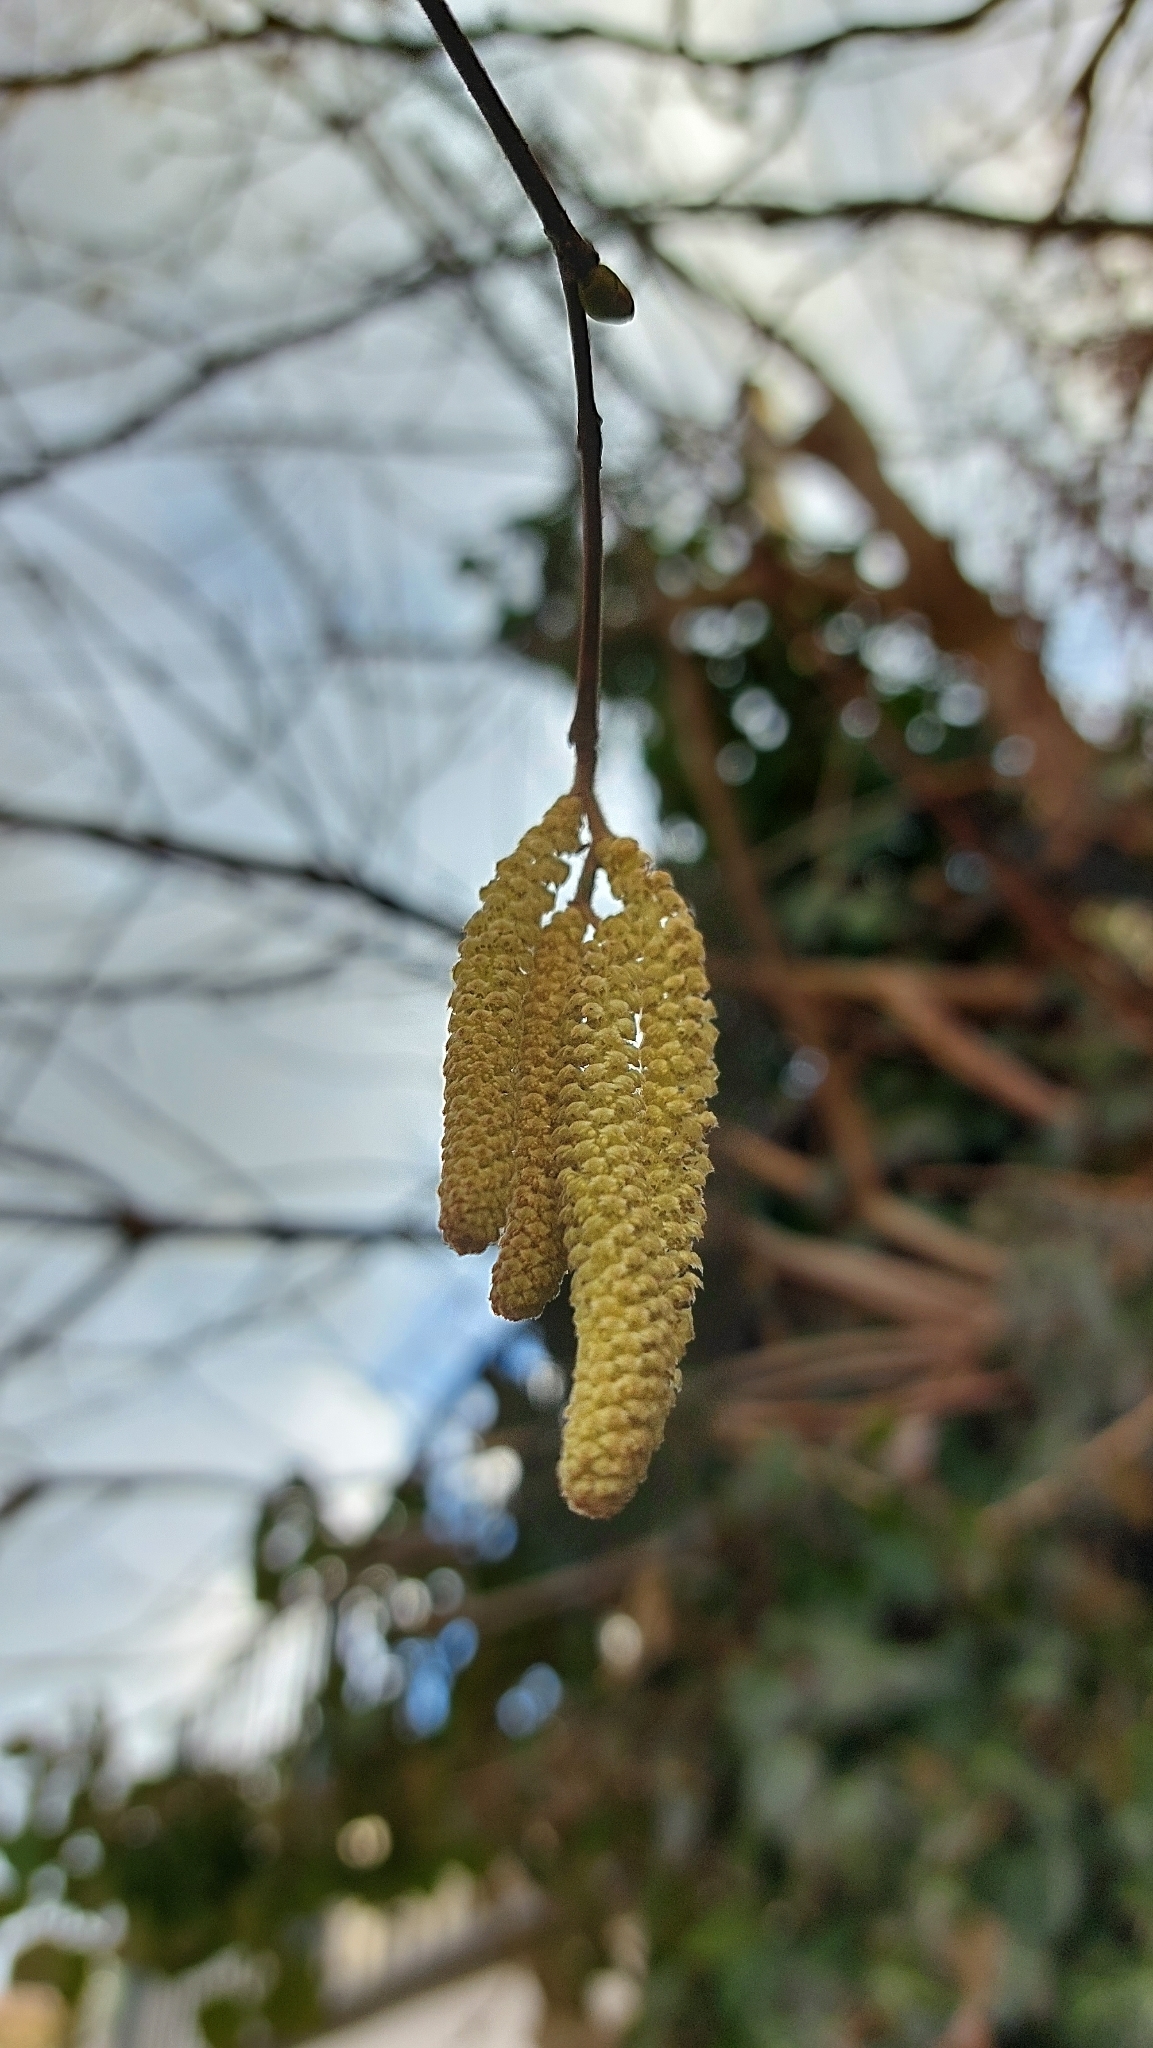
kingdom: Plantae
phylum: Tracheophyta
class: Magnoliopsida
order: Fagales
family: Betulaceae
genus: Corylus
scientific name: Corylus avellana
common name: European hazel
